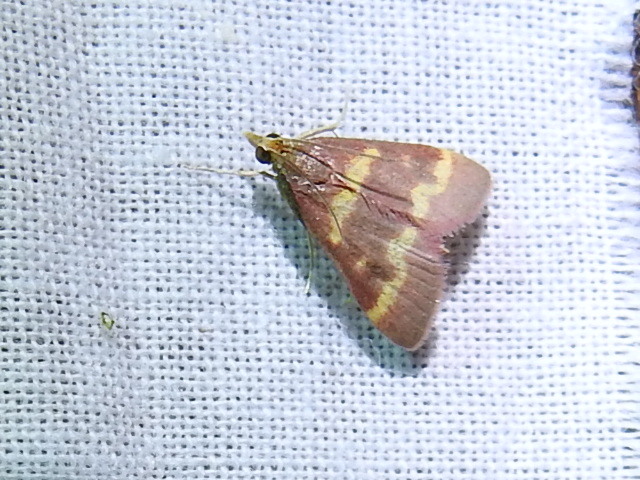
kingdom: Animalia
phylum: Arthropoda
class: Insecta
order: Lepidoptera
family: Crambidae
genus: Pyrausta
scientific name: Pyrausta tyralis
